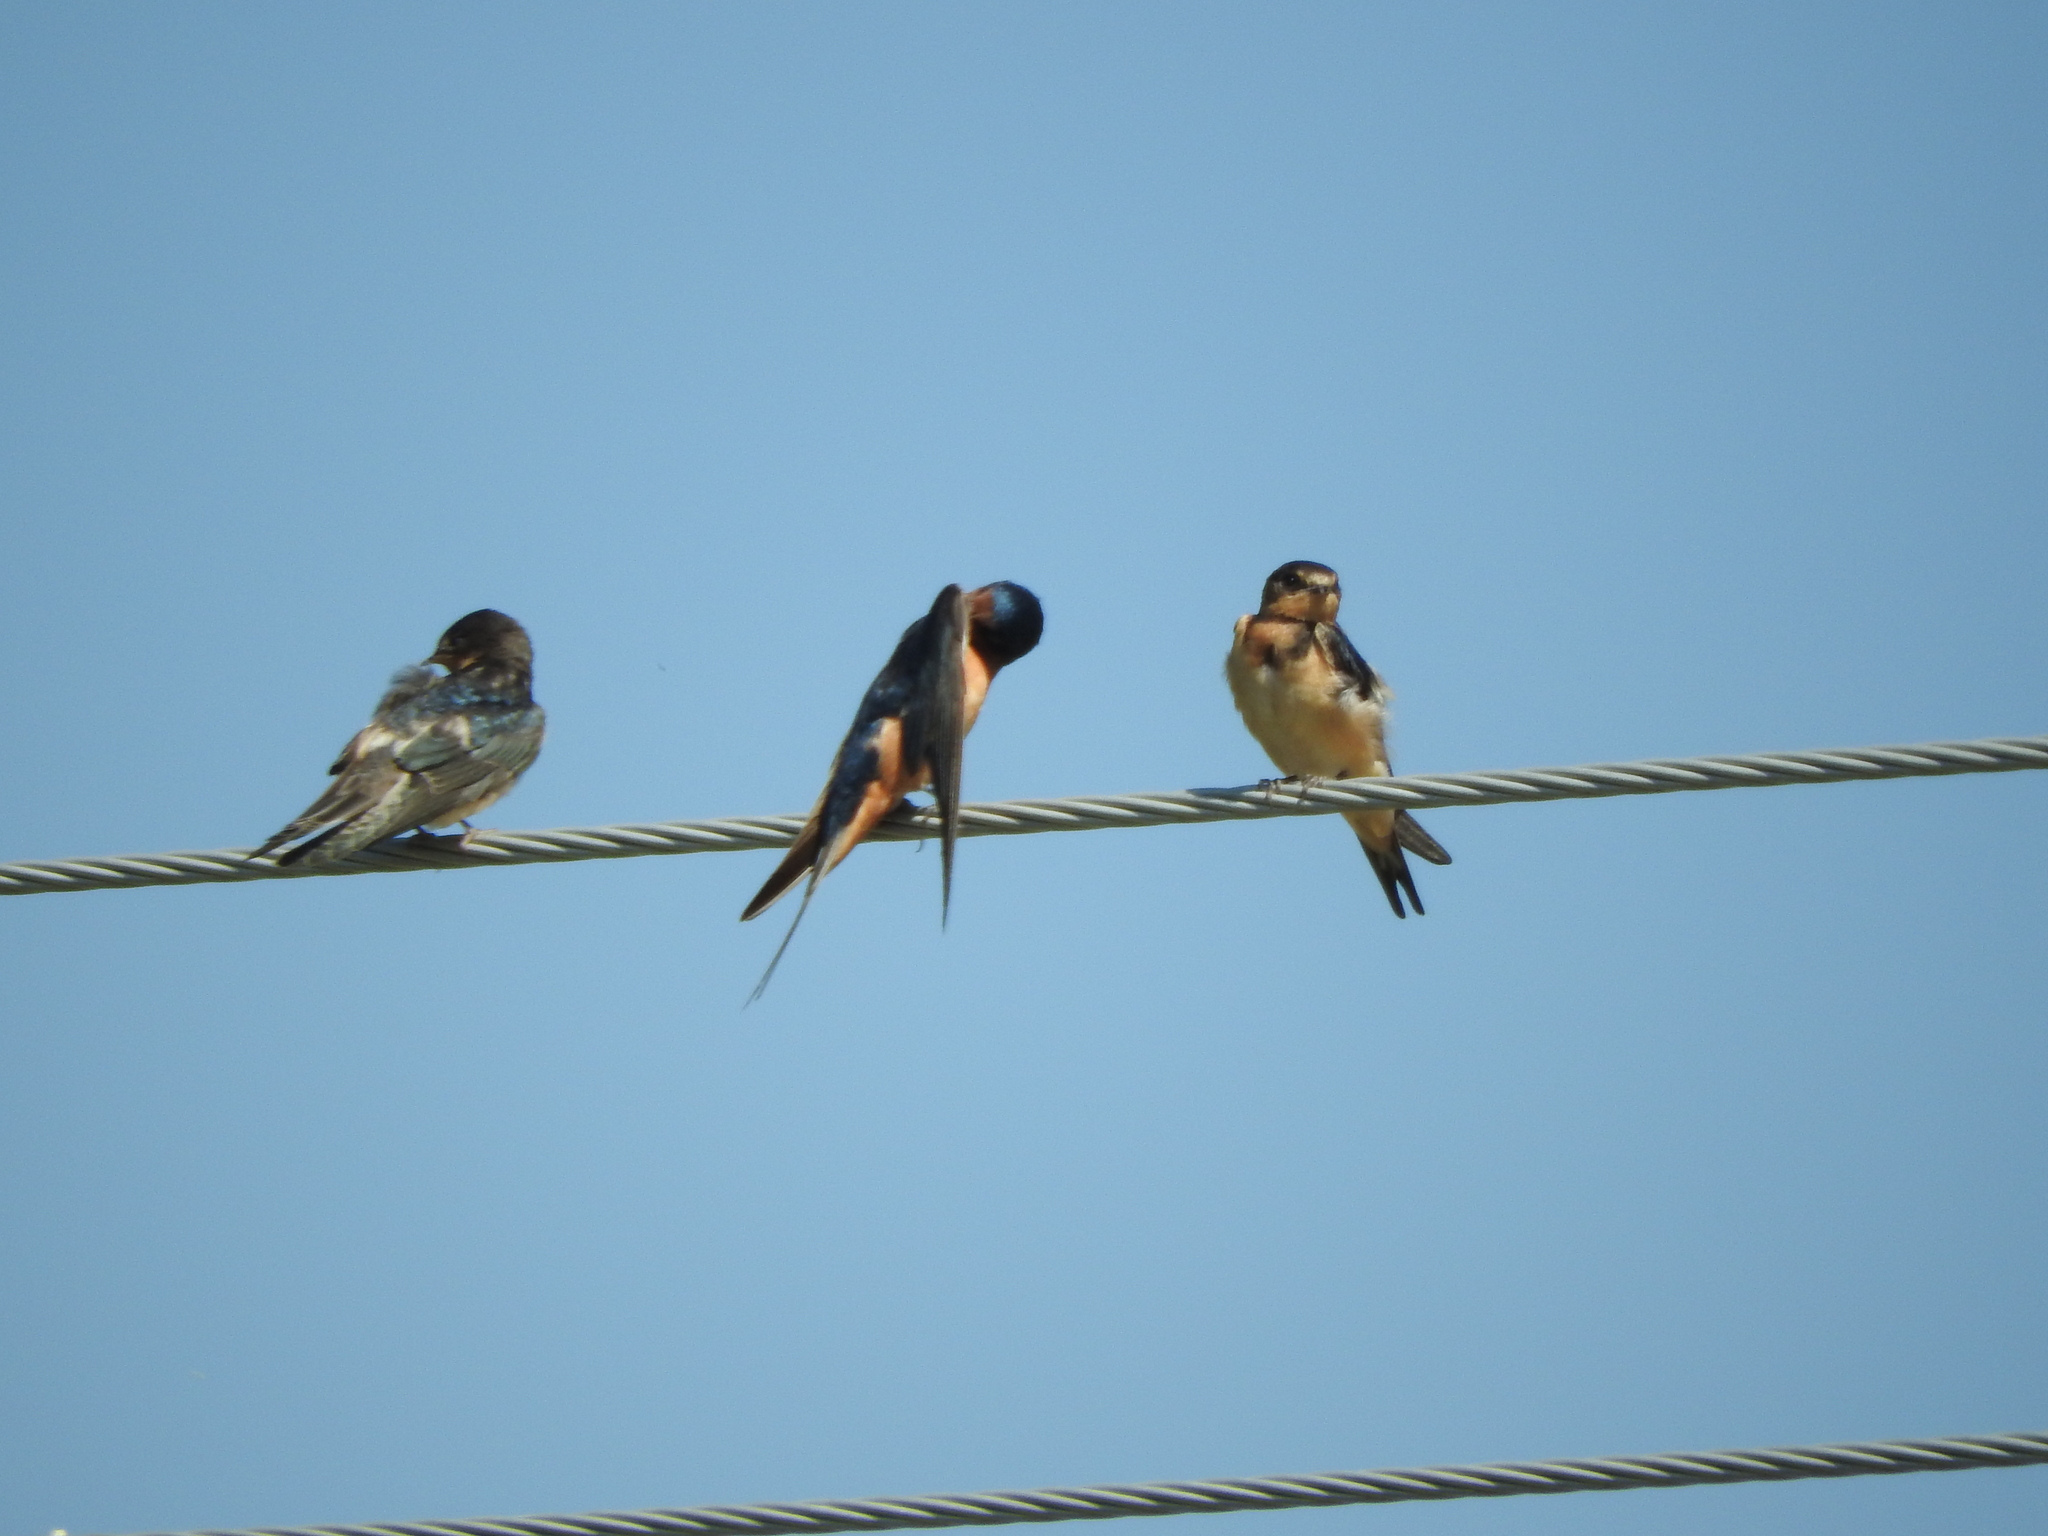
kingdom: Animalia
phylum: Chordata
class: Aves
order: Passeriformes
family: Hirundinidae
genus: Hirundo
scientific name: Hirundo rustica
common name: Barn swallow
